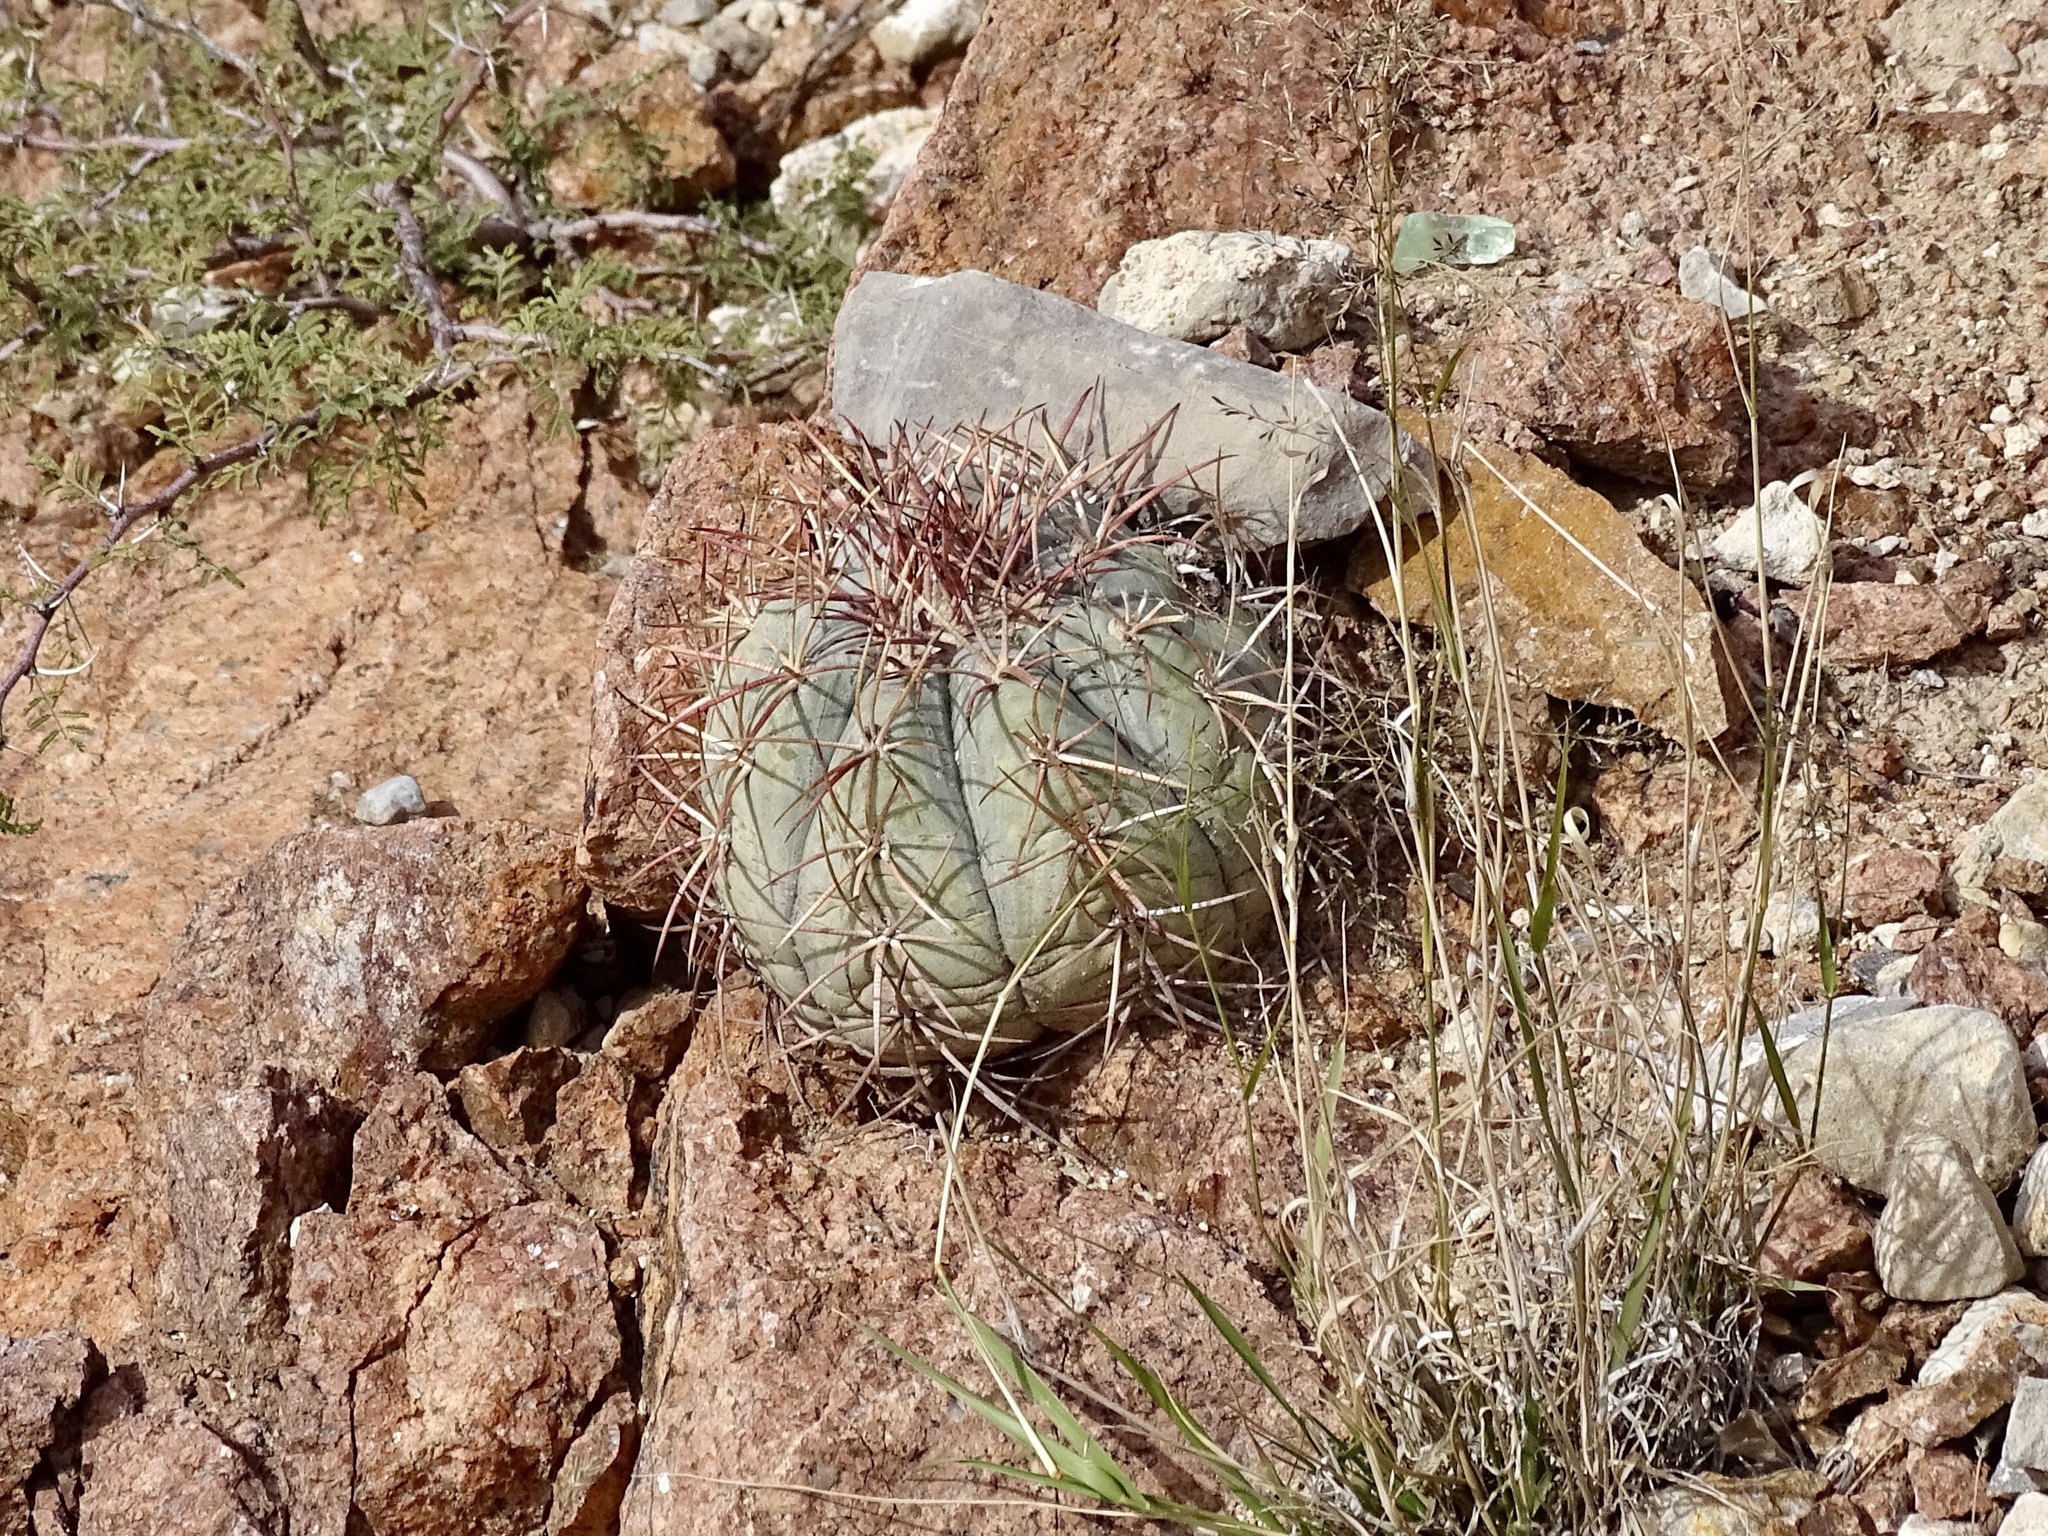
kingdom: Plantae
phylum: Tracheophyta
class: Magnoliopsida
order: Caryophyllales
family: Cactaceae
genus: Echinocactus
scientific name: Echinocactus horizonthalonius
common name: Devilshead
